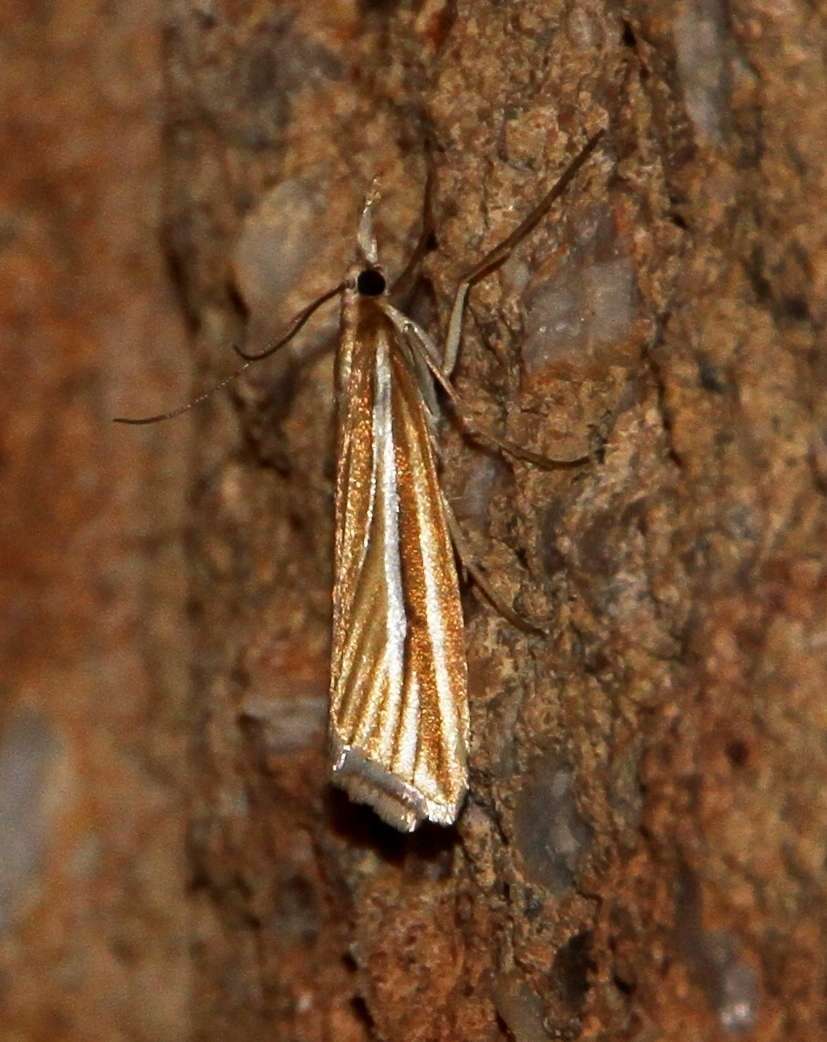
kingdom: Animalia
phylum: Arthropoda
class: Insecta
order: Lepidoptera
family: Crambidae
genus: Hednota
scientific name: Hednota grammellus
